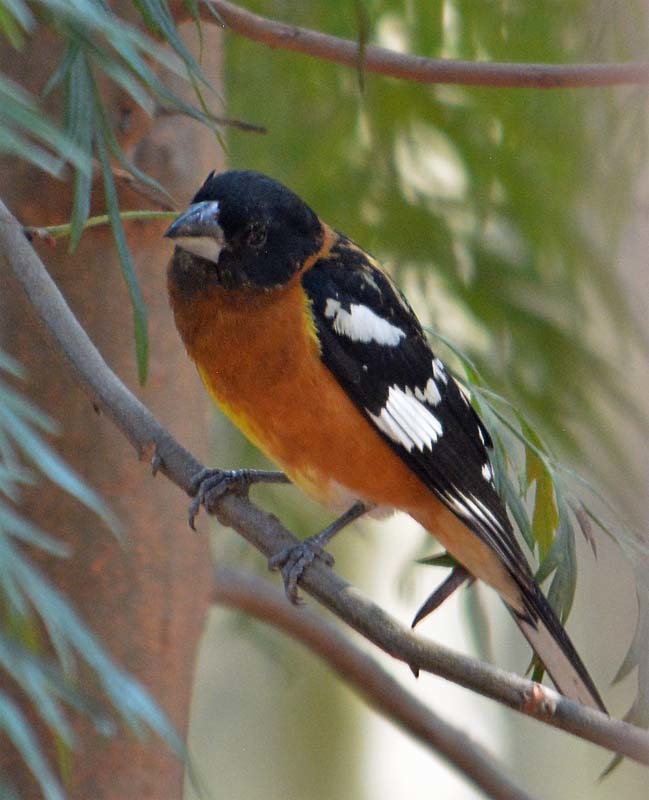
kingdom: Animalia
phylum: Chordata
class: Aves
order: Passeriformes
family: Cardinalidae
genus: Pheucticus
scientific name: Pheucticus melanocephalus
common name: Black-headed grosbeak
